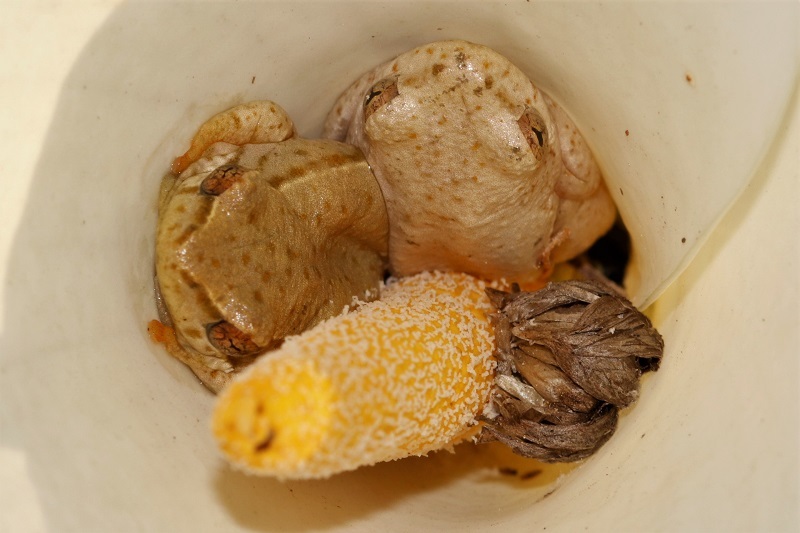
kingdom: Animalia
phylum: Chordata
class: Amphibia
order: Anura
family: Hyperoliidae
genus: Hyperolius
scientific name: Hyperolius marmoratus
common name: Painted reed frog
